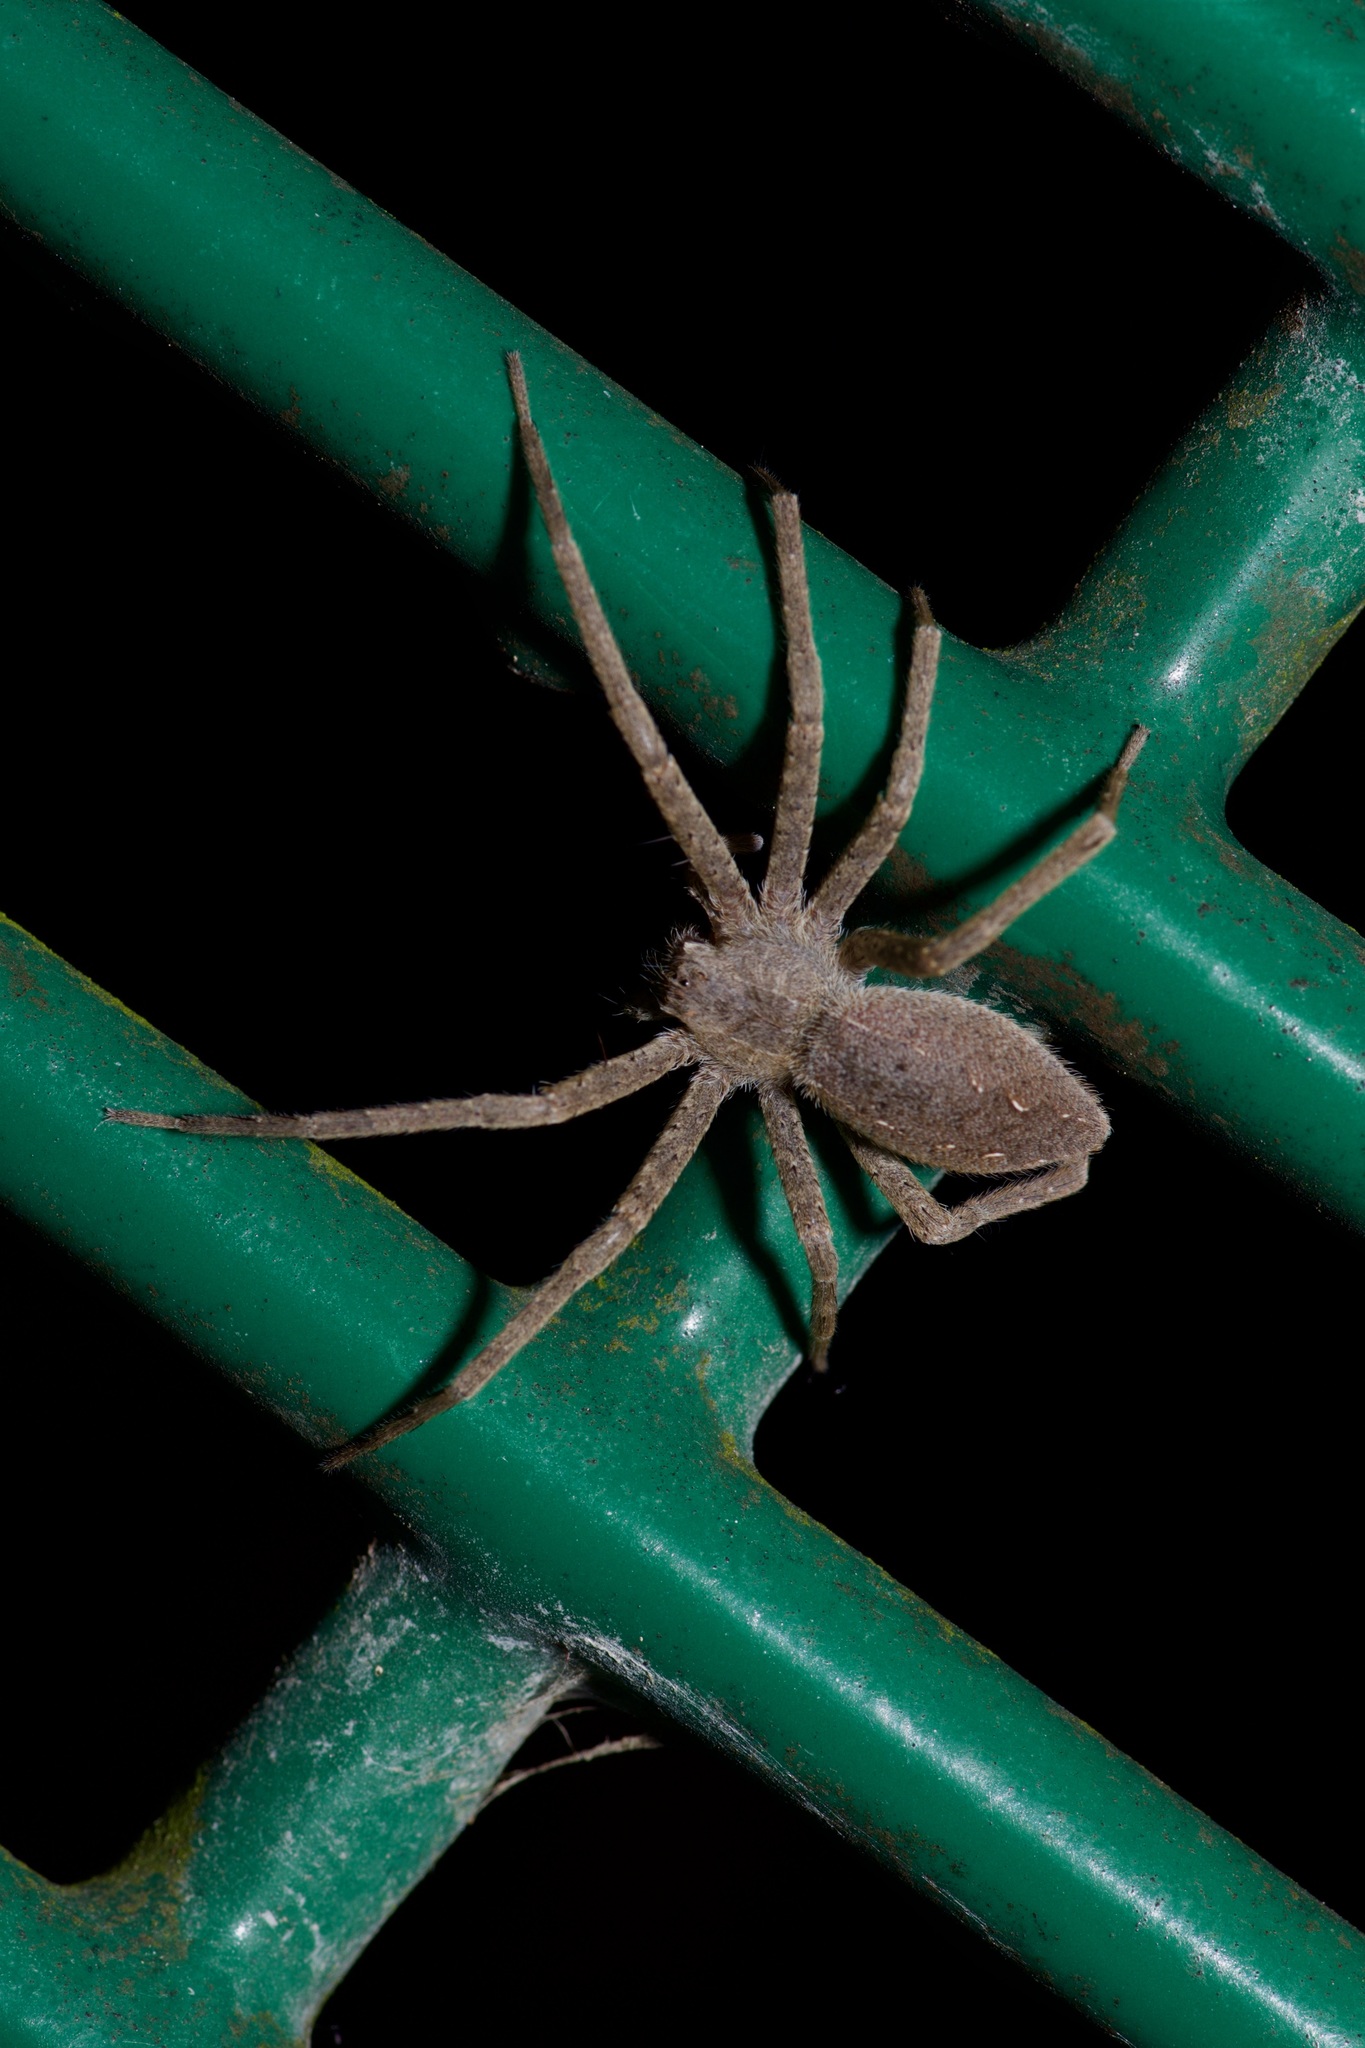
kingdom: Animalia
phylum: Arthropoda
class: Arachnida
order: Araneae
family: Pisauridae
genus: Pisaurina
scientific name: Pisaurina mira
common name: American nursery web spider
